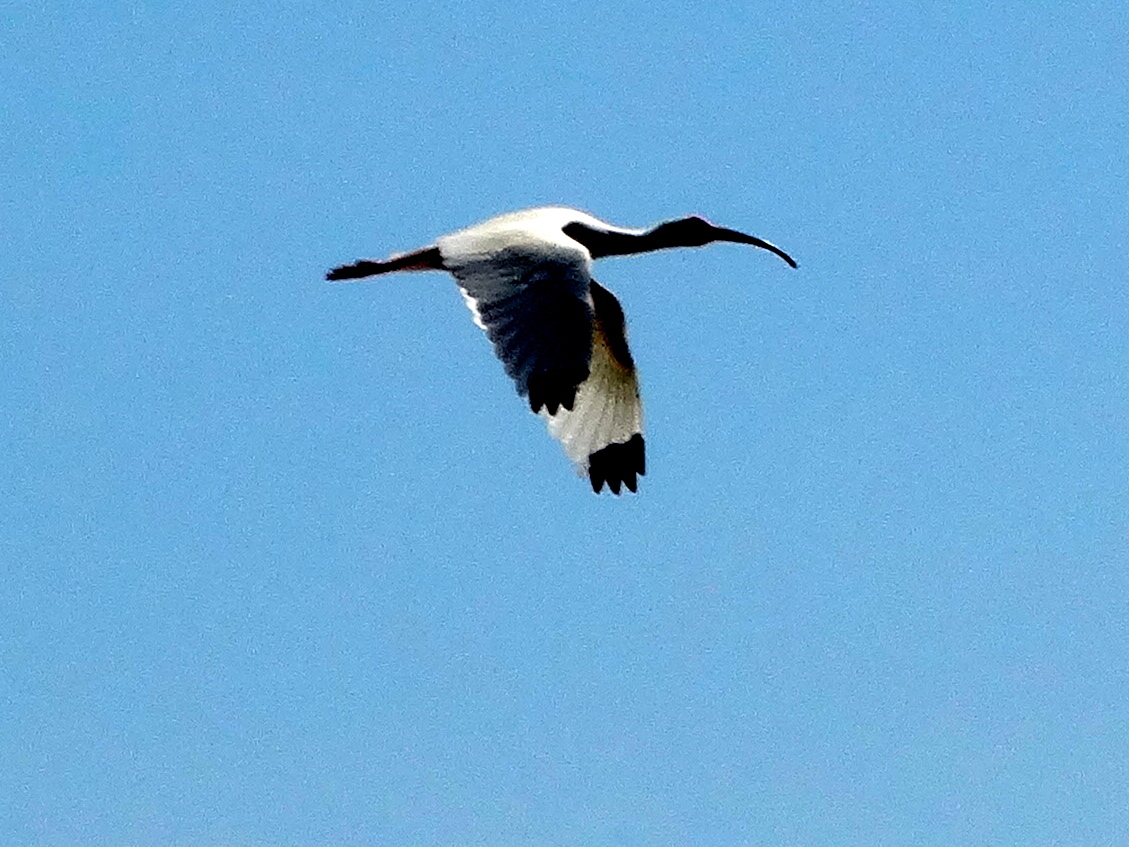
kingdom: Animalia
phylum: Chordata
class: Aves
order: Pelecaniformes
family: Threskiornithidae
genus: Eudocimus
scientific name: Eudocimus albus
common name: White ibis
